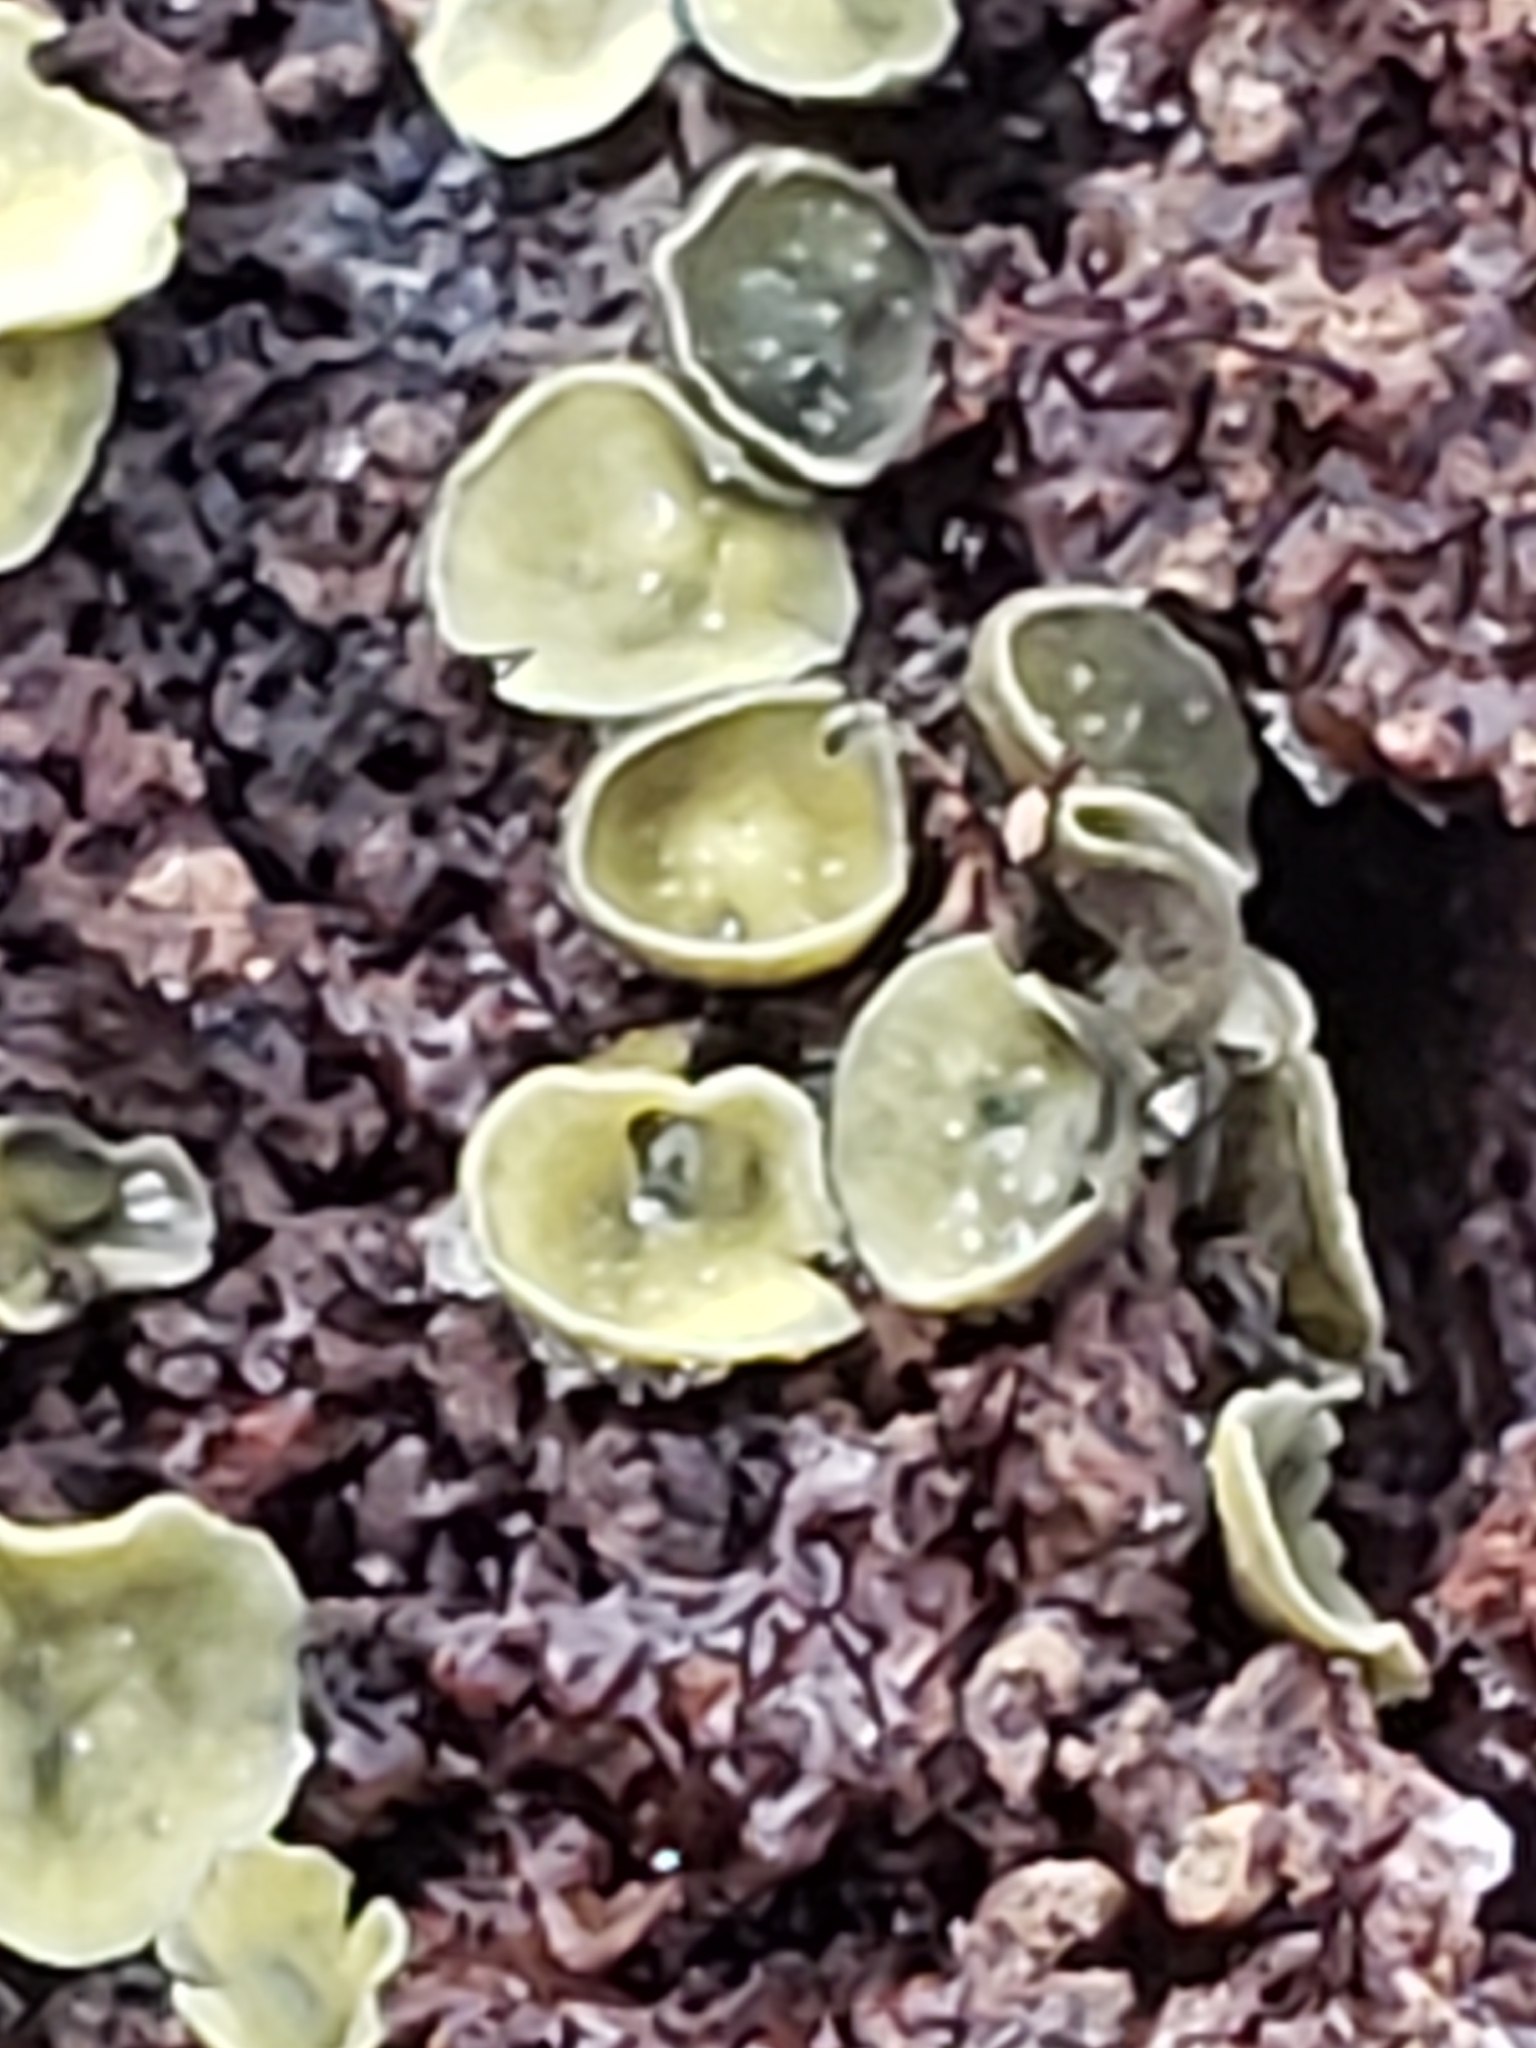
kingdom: Fungi
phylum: Ascomycota
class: Leotiomycetes
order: Helotiales
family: Chlorospleniaceae
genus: Chlorosplenium
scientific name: Chlorosplenium chlora
